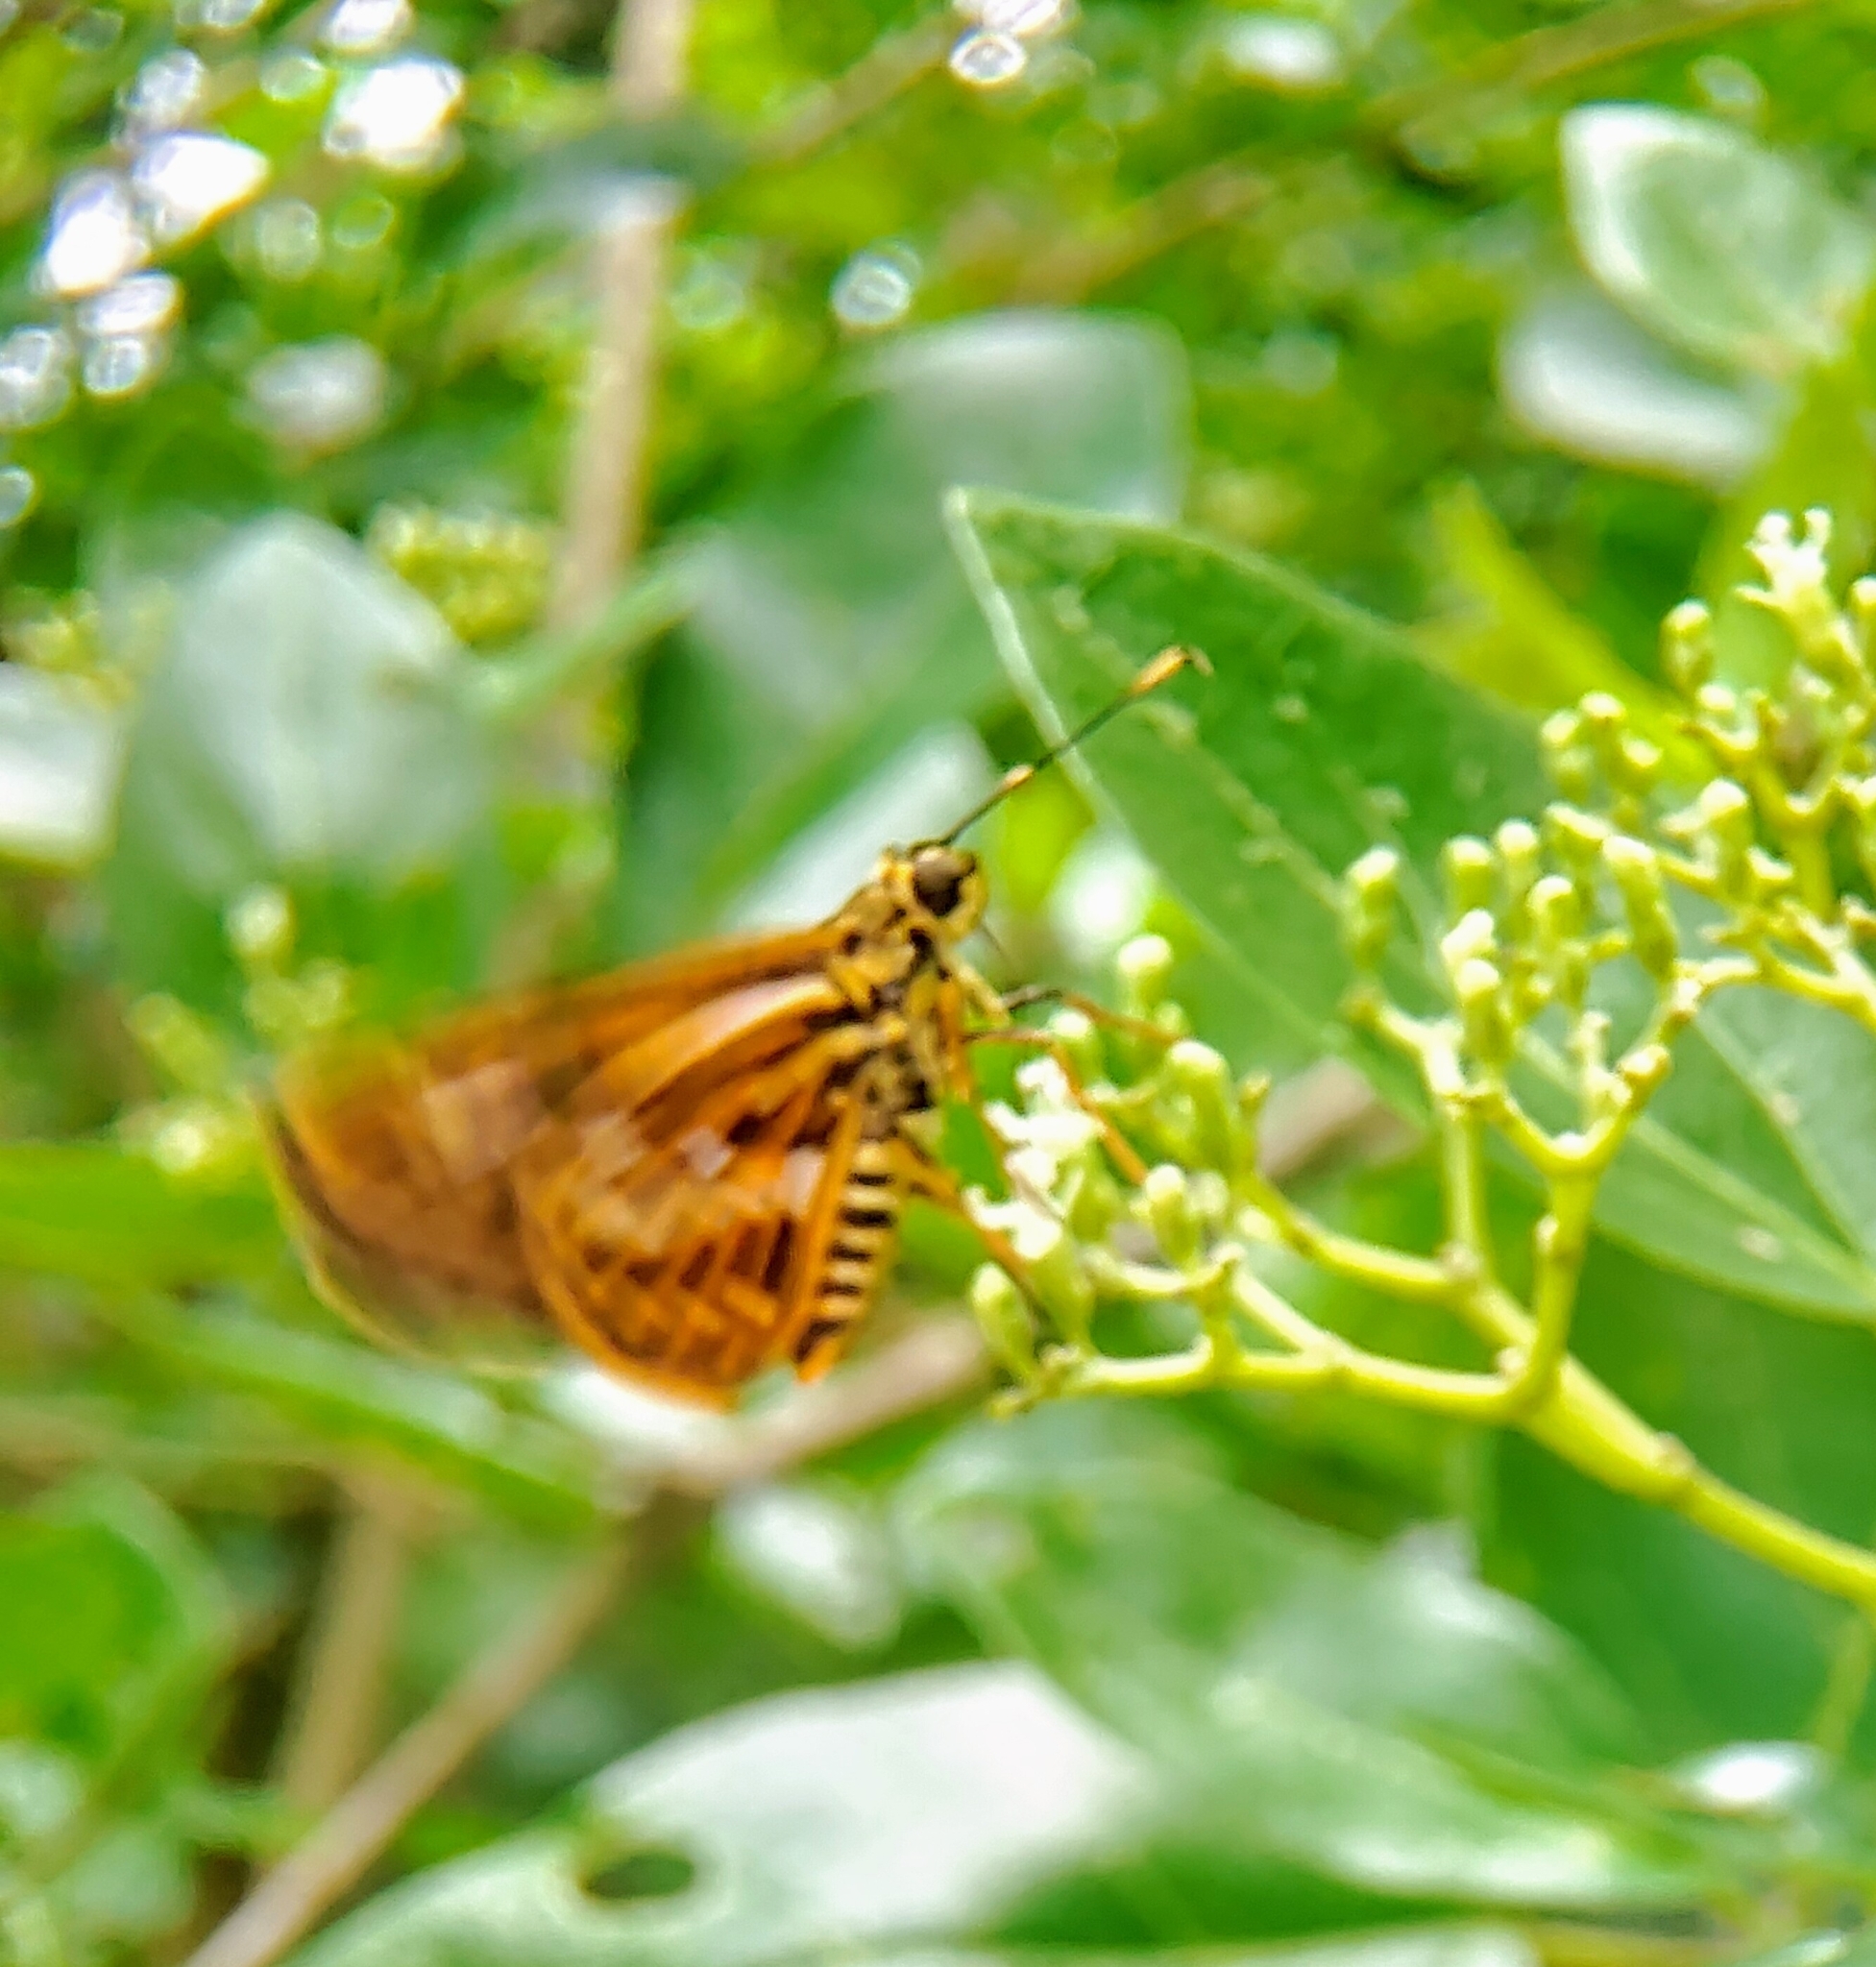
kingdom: Animalia
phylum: Arthropoda
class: Insecta
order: Lepidoptera
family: Hesperiidae
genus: Pyroneura
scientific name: Pyroneura latoia
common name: Yellow vein lancer
